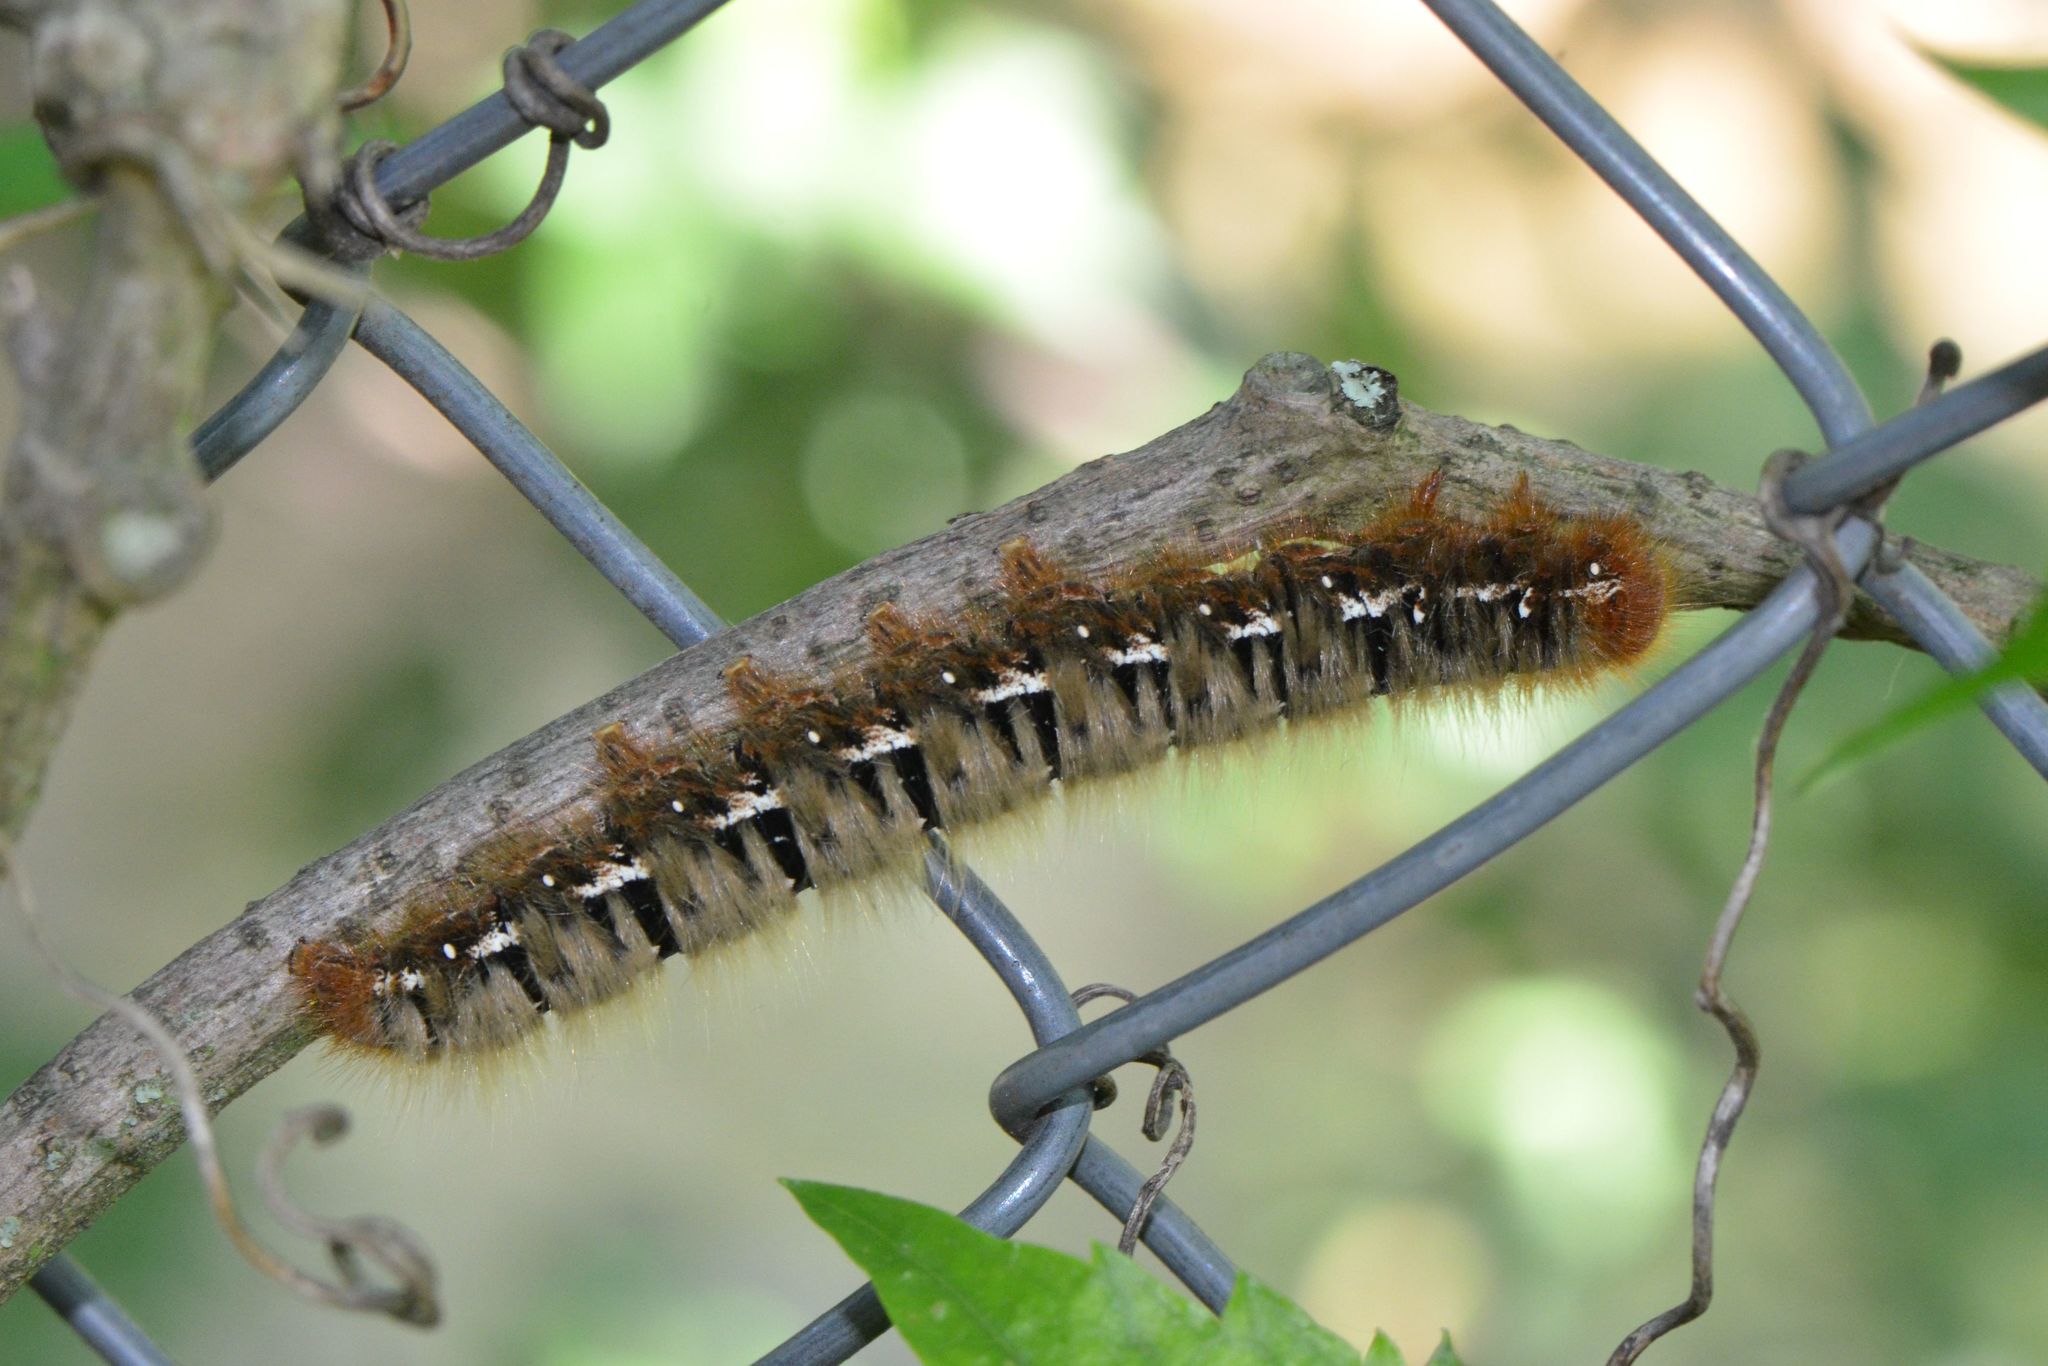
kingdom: Animalia
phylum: Arthropoda
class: Insecta
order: Lepidoptera
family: Lasiocampidae
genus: Lasiocampa
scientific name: Lasiocampa quercus
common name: Oak eggar
